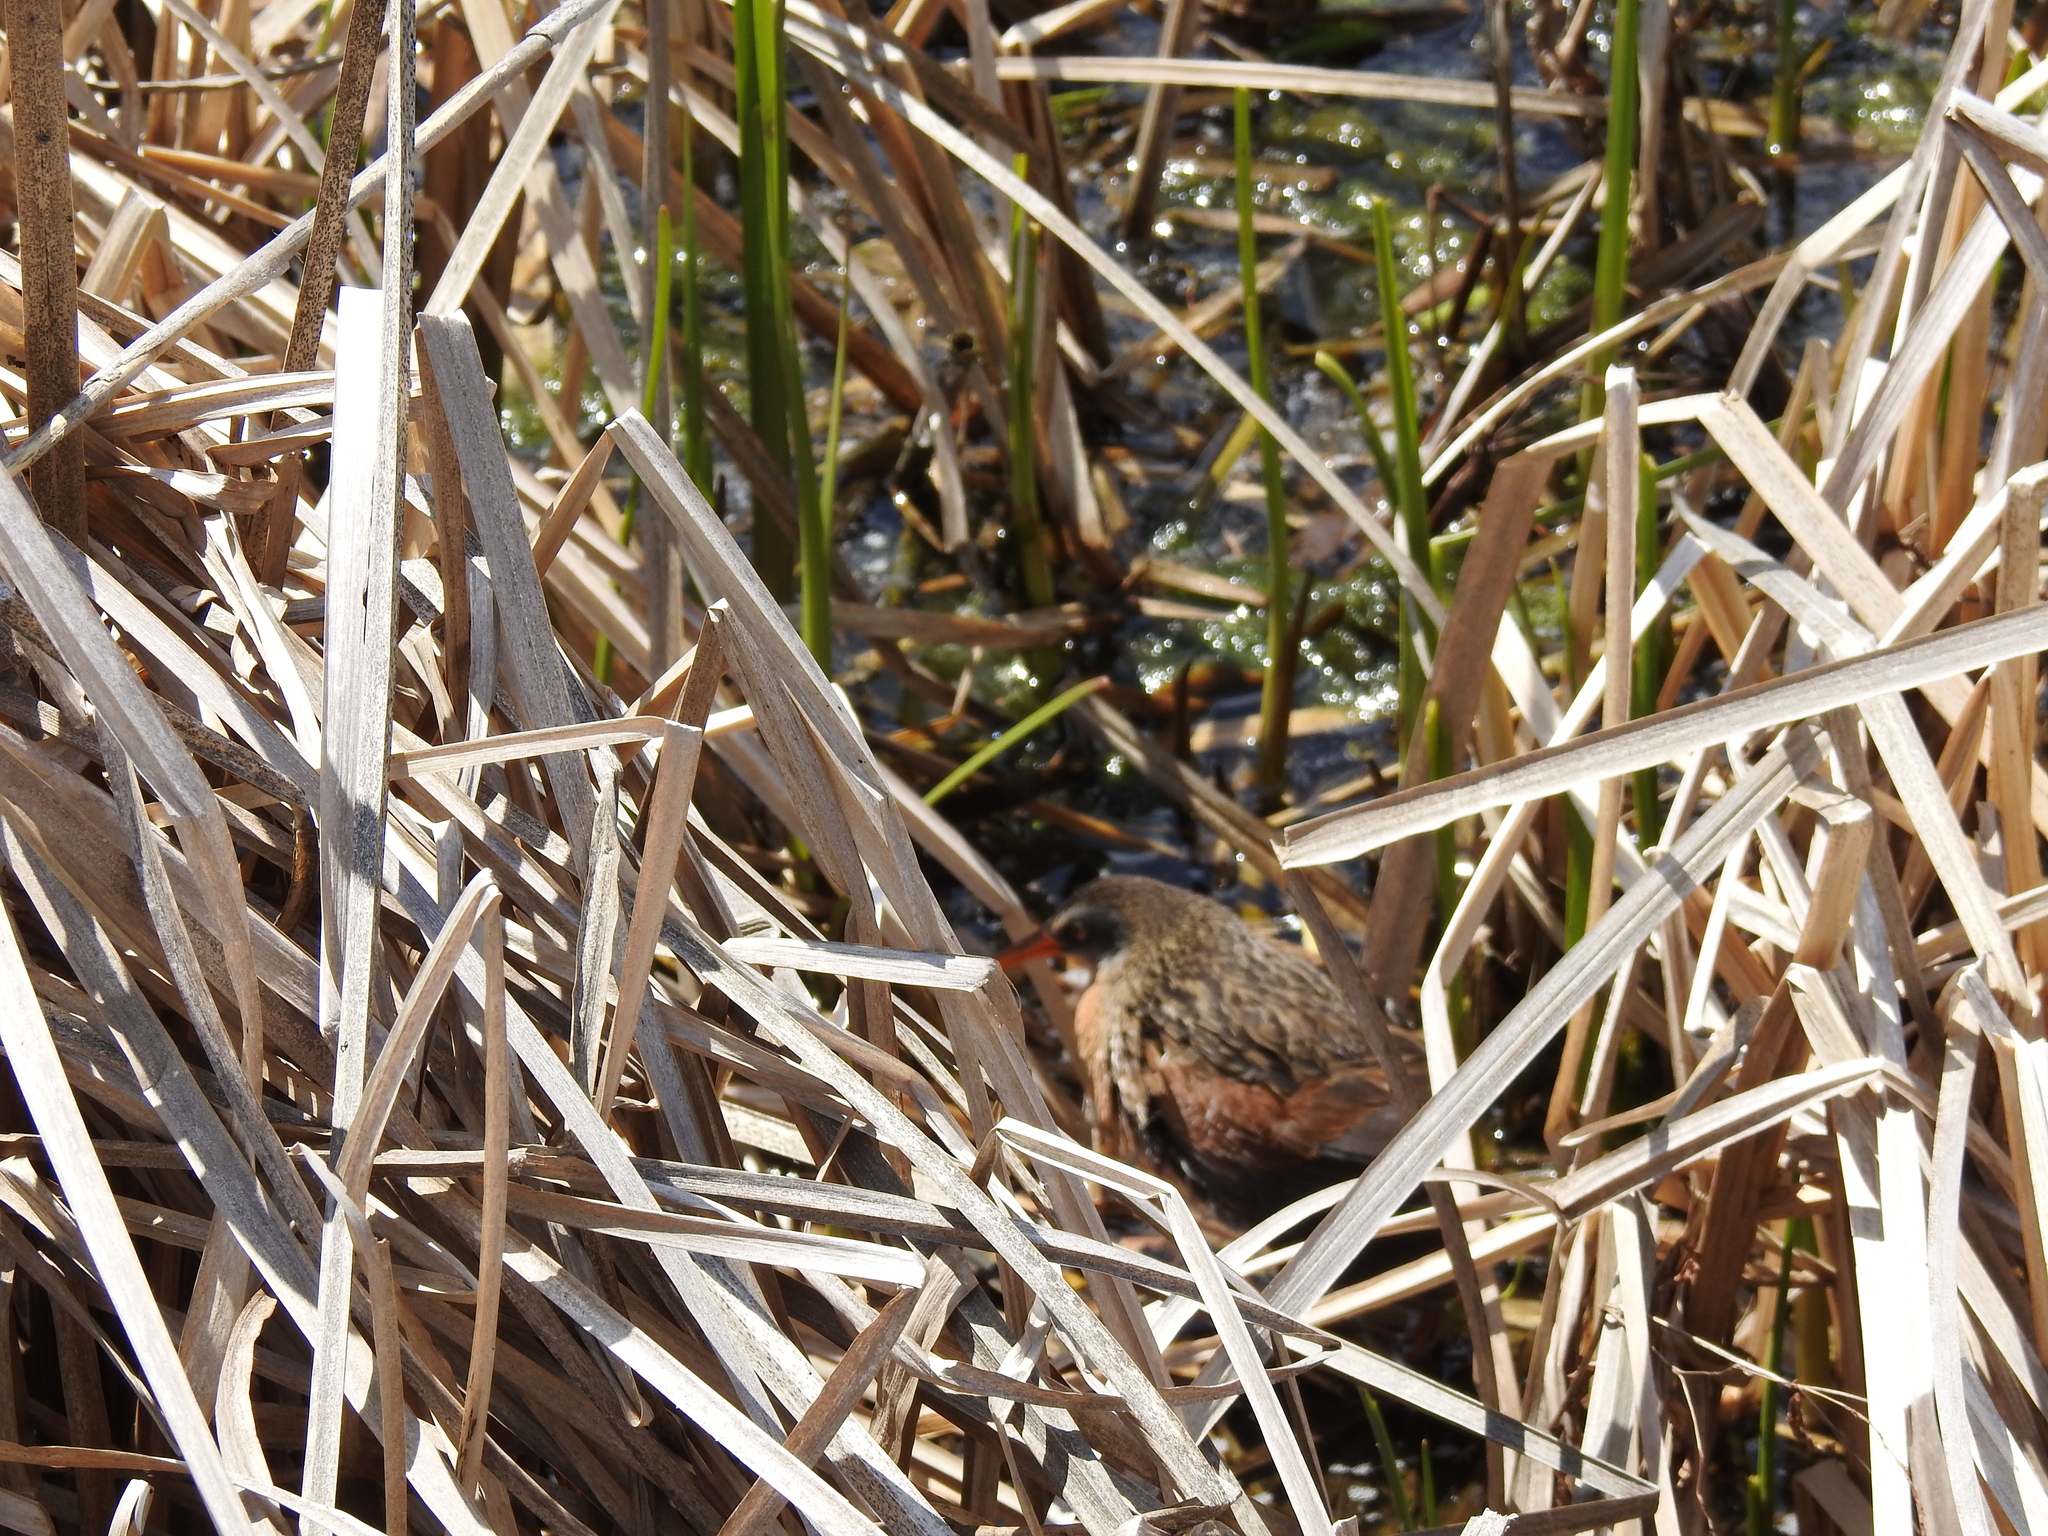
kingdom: Animalia
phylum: Chordata
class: Aves
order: Gruiformes
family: Rallidae
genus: Rallus
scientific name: Rallus limicola
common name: Virginia rail
